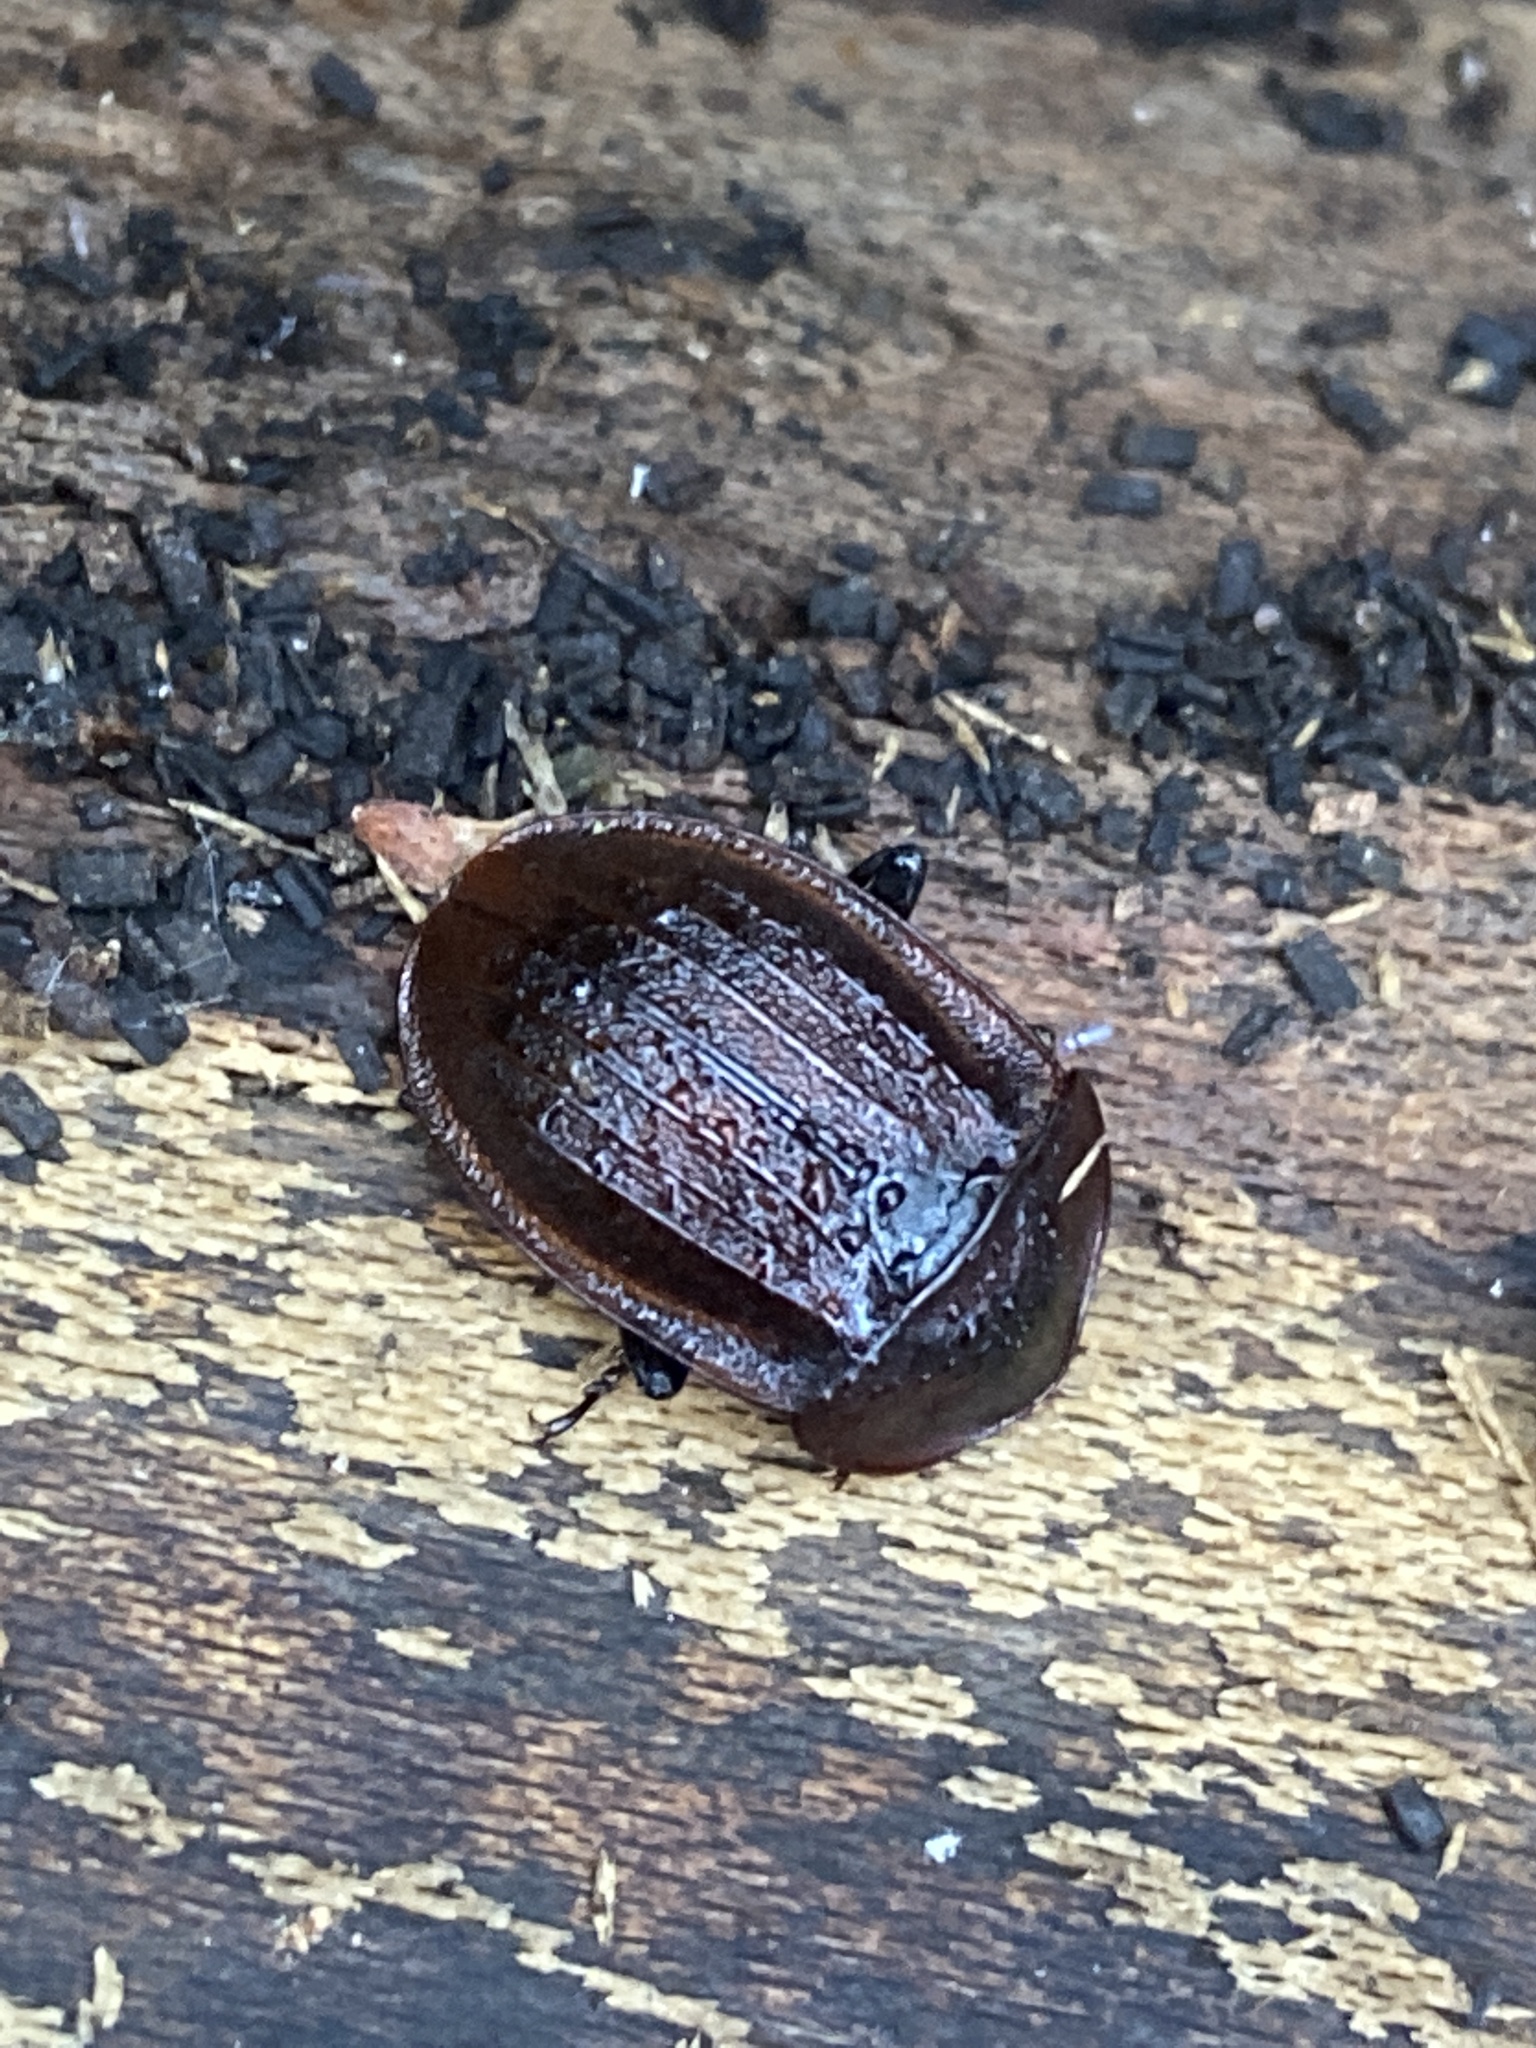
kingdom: Animalia
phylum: Arthropoda
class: Insecta
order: Coleoptera
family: Staphylinidae
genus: Silpha
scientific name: Silpha atrata
